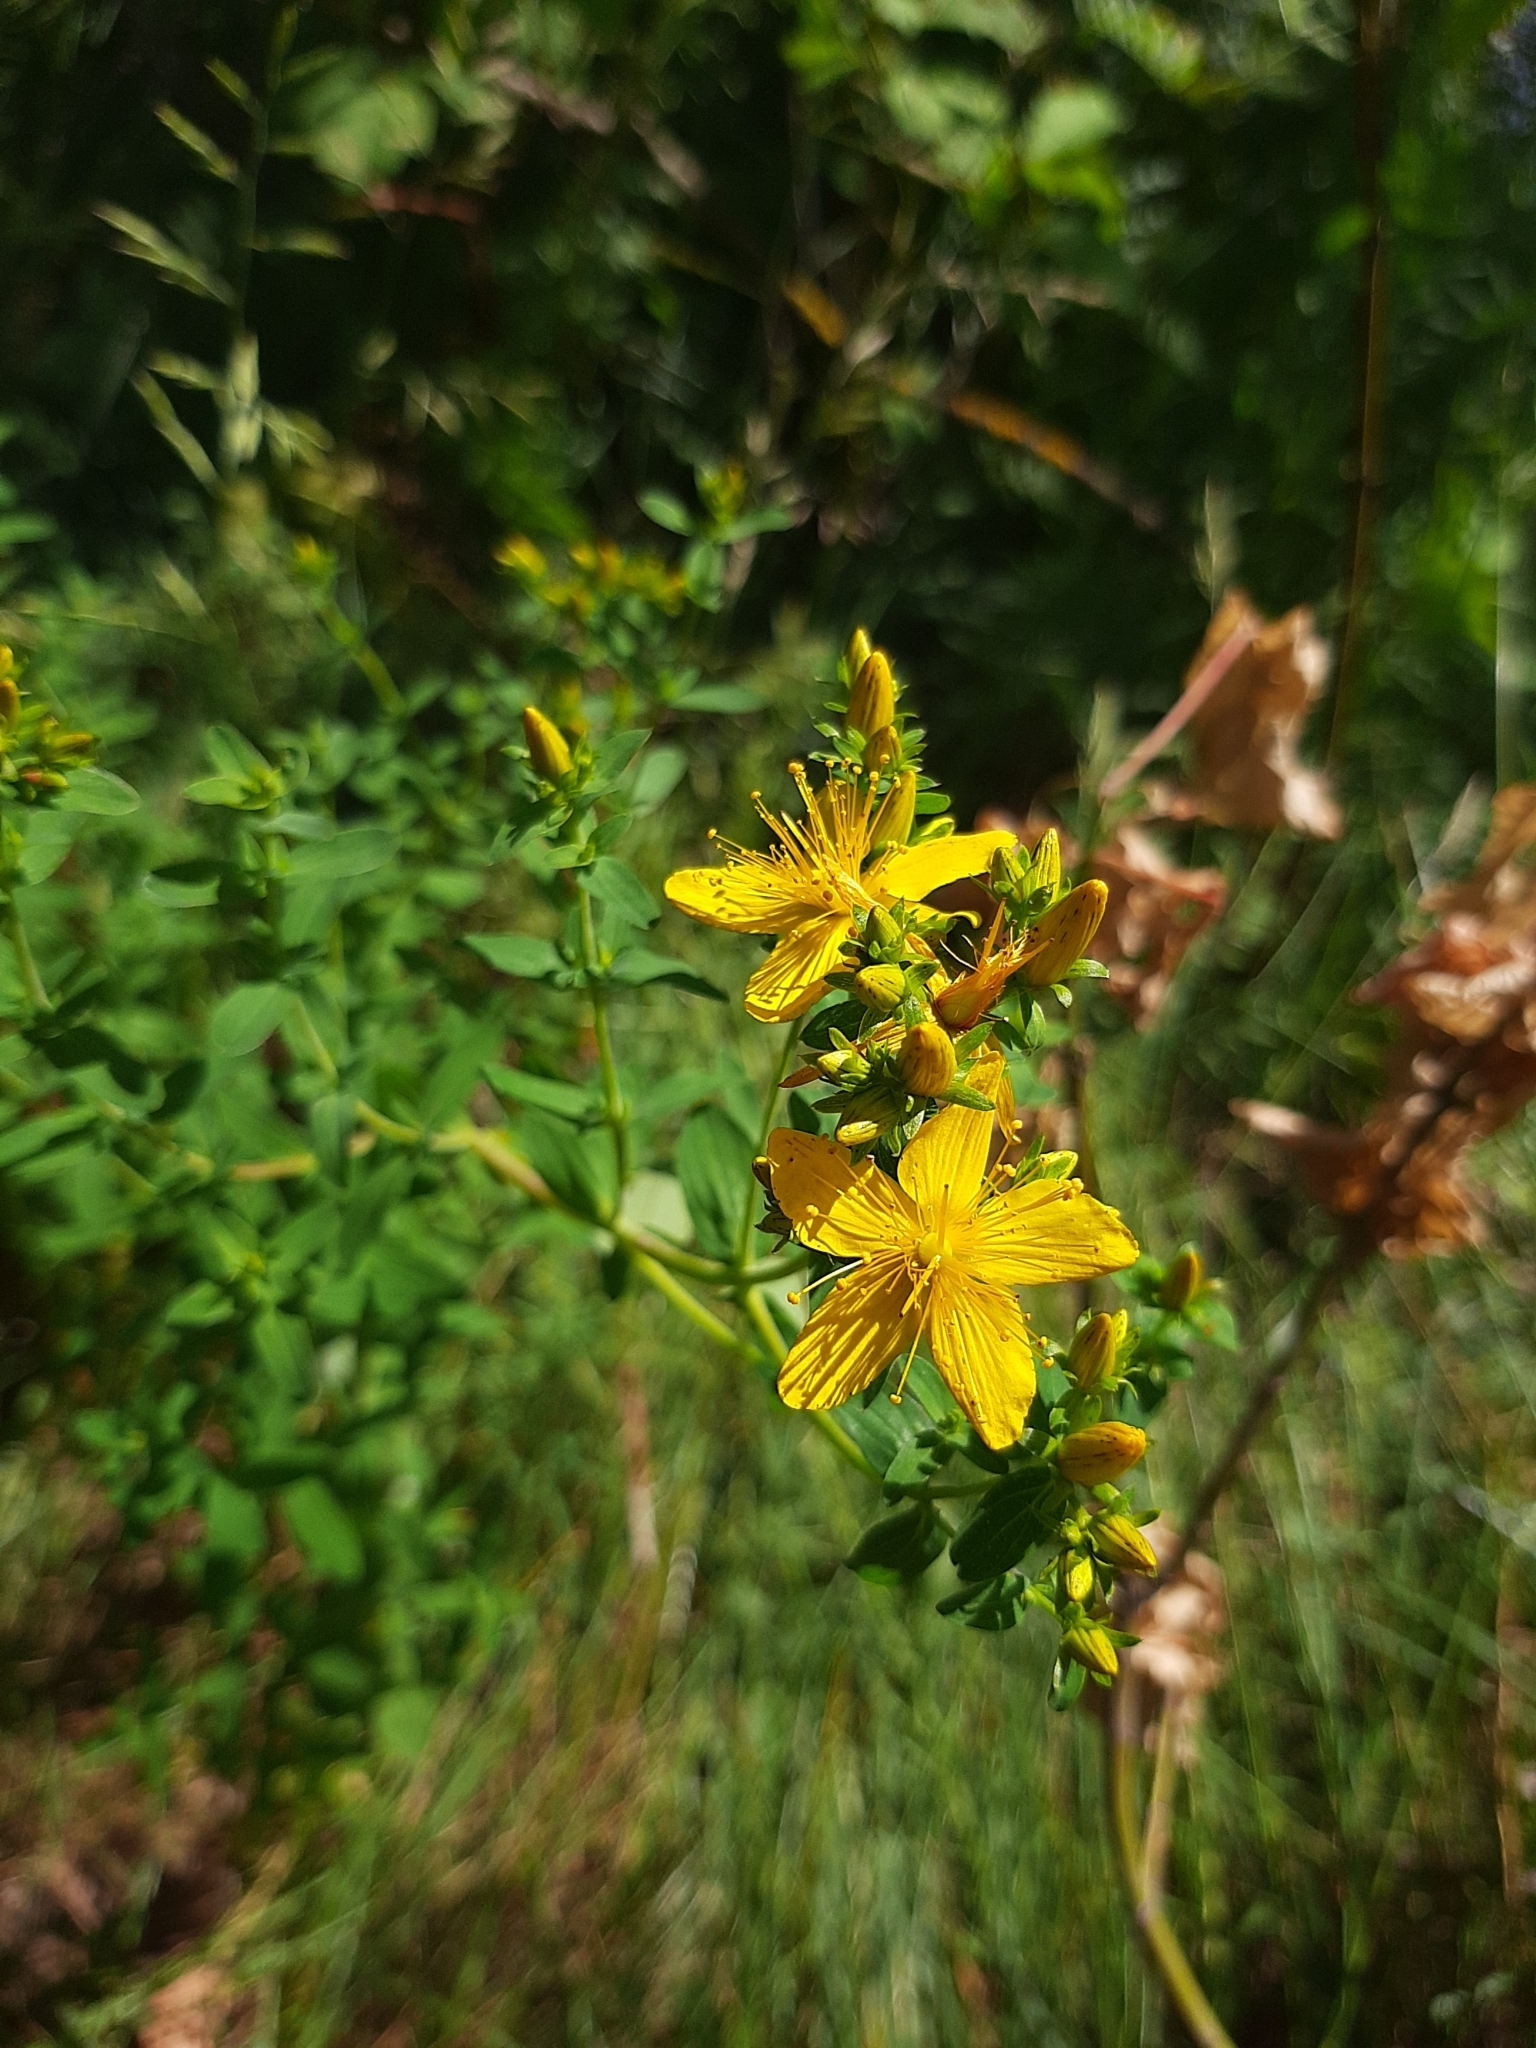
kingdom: Plantae
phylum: Tracheophyta
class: Magnoliopsida
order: Malpighiales
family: Hypericaceae
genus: Hypericum
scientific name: Hypericum perforatum
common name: Common st. johnswort
